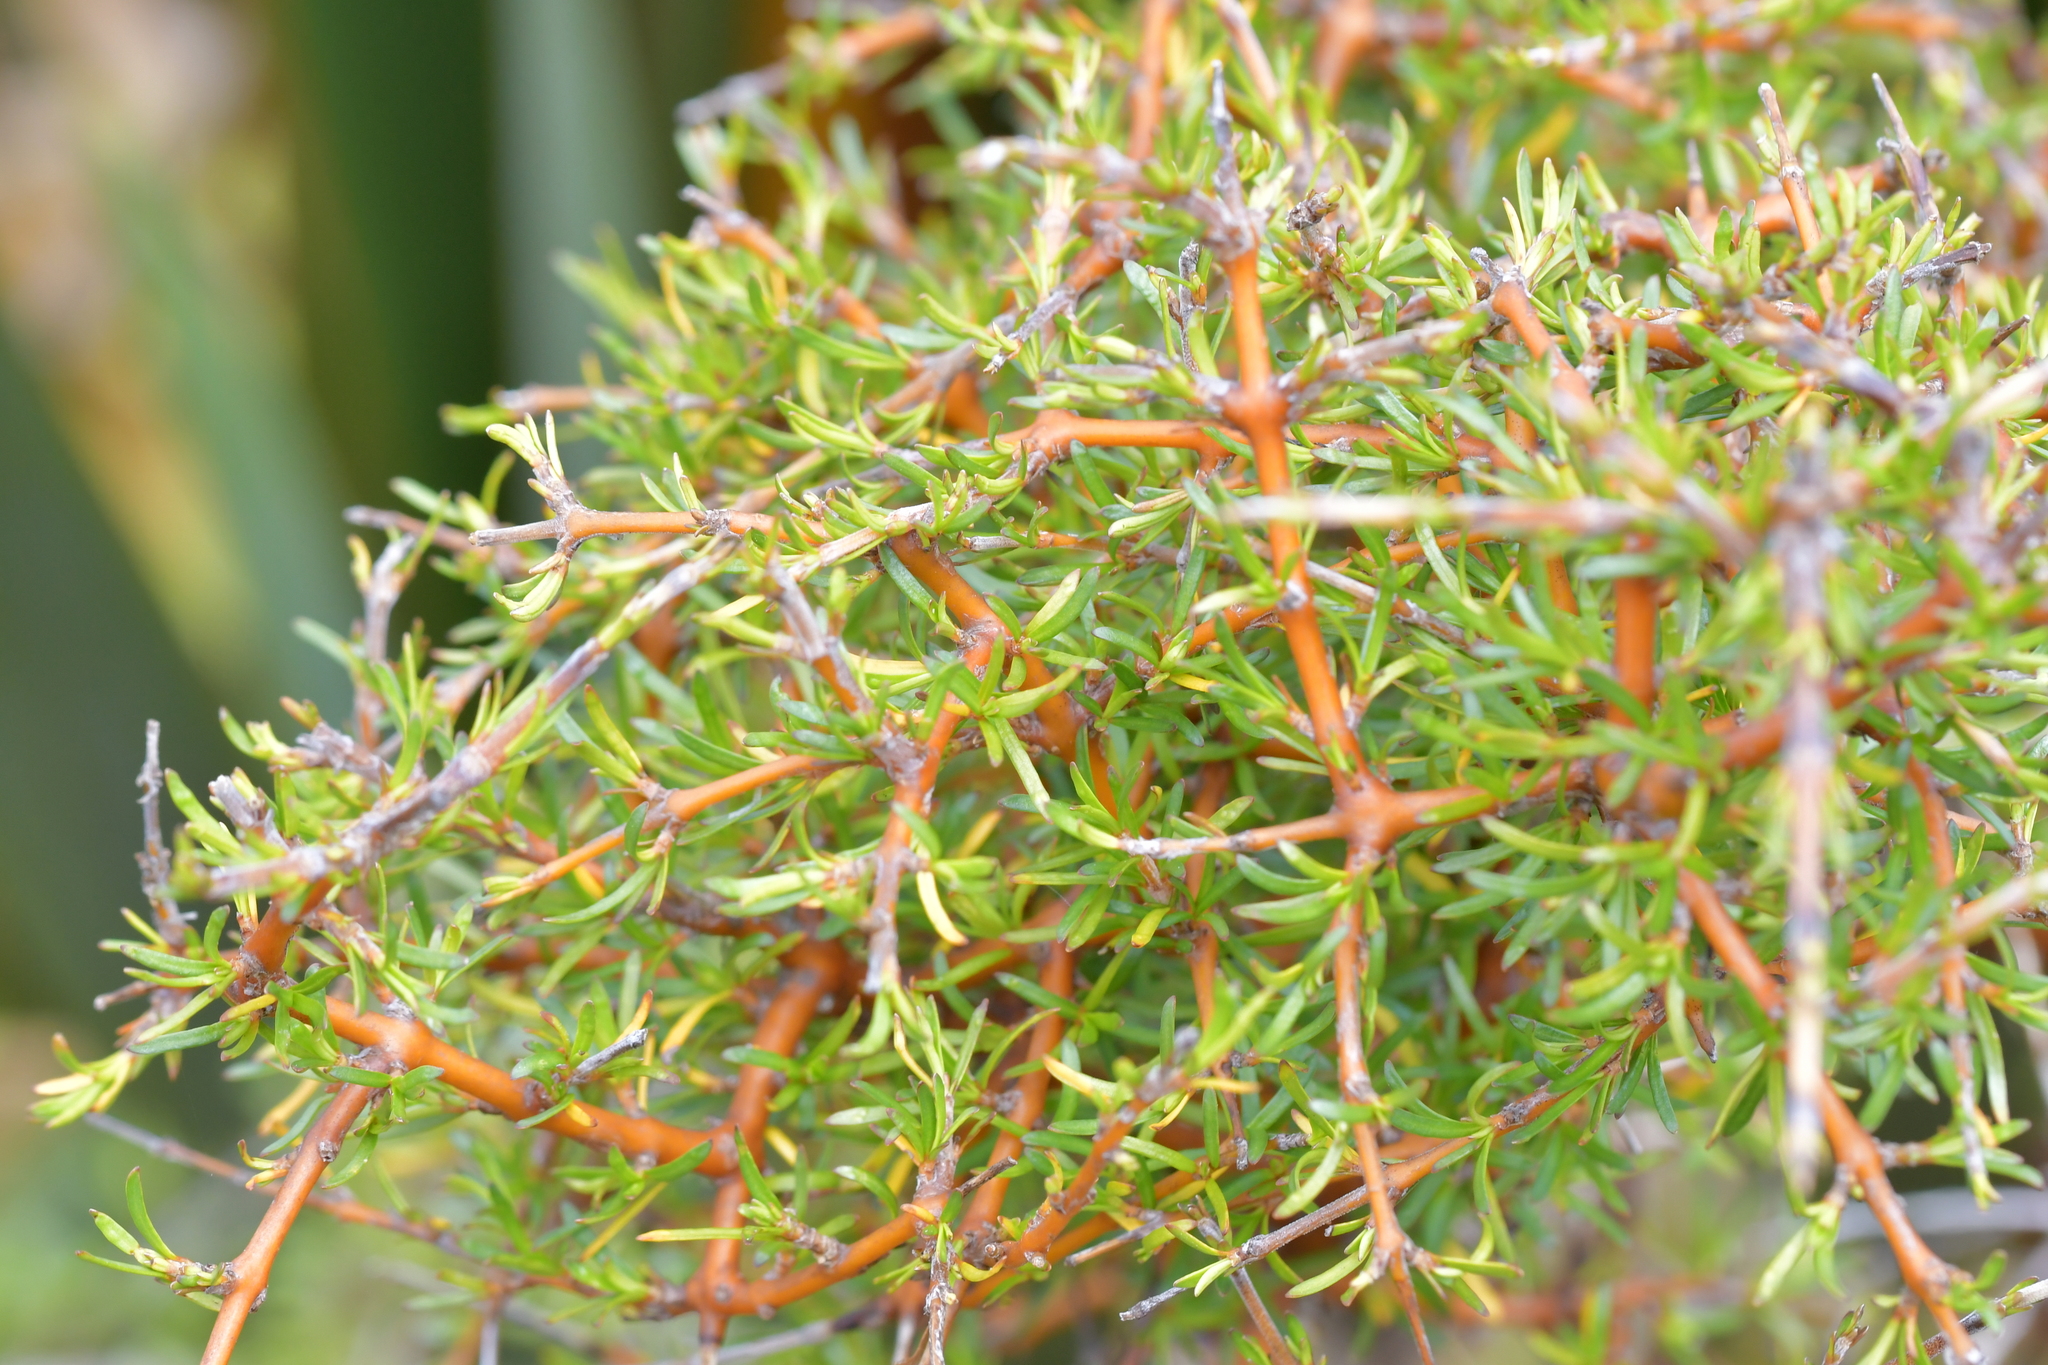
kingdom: Plantae
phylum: Tracheophyta
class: Magnoliopsida
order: Gentianales
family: Rubiaceae
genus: Coprosma
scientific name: Coprosma rugosa
